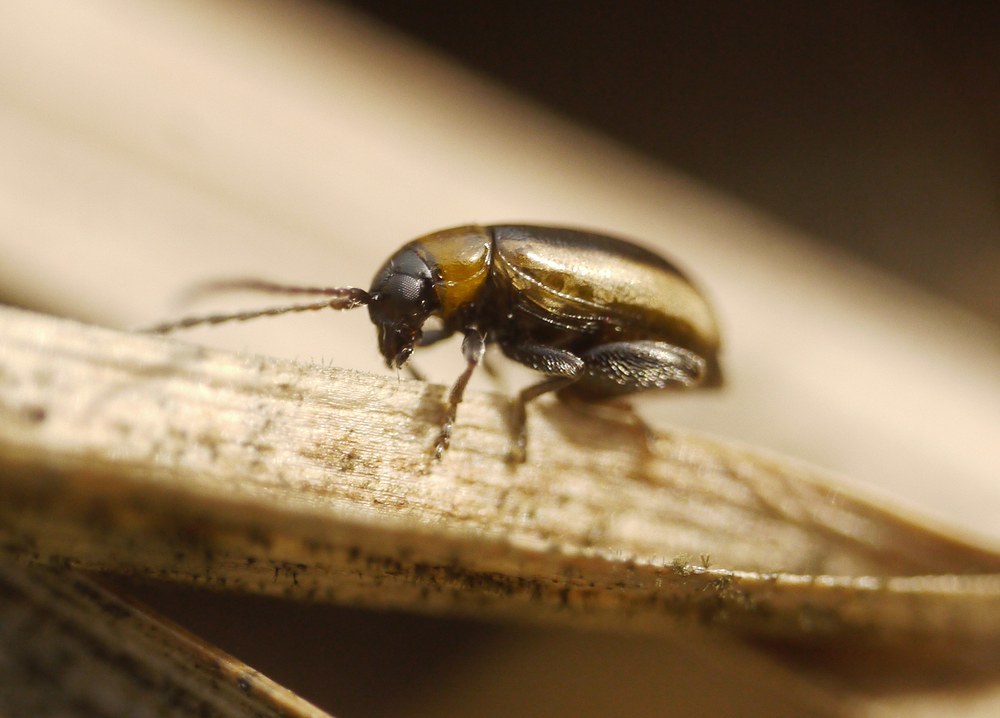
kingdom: Animalia
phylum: Arthropoda
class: Insecta
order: Coleoptera
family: Chrysomelidae
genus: Longitarsus
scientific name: Longitarsus dorsalis
